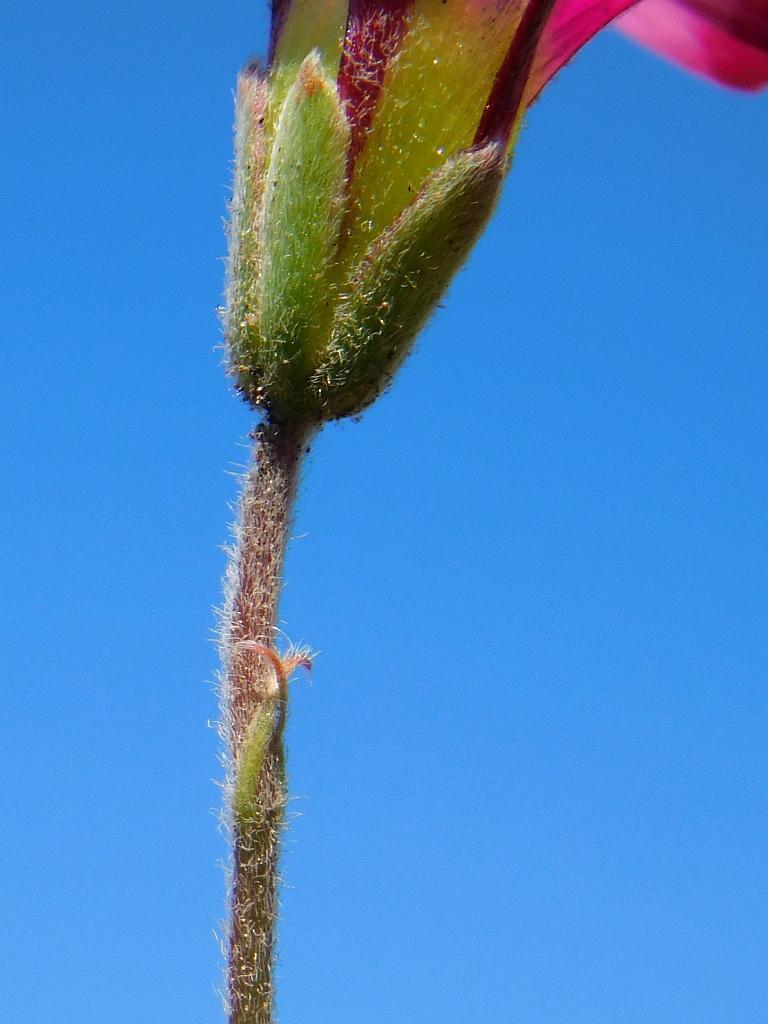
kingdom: Plantae
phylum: Tracheophyta
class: Magnoliopsida
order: Oxalidales
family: Oxalidaceae
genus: Oxalis
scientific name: Oxalis heterophylla
